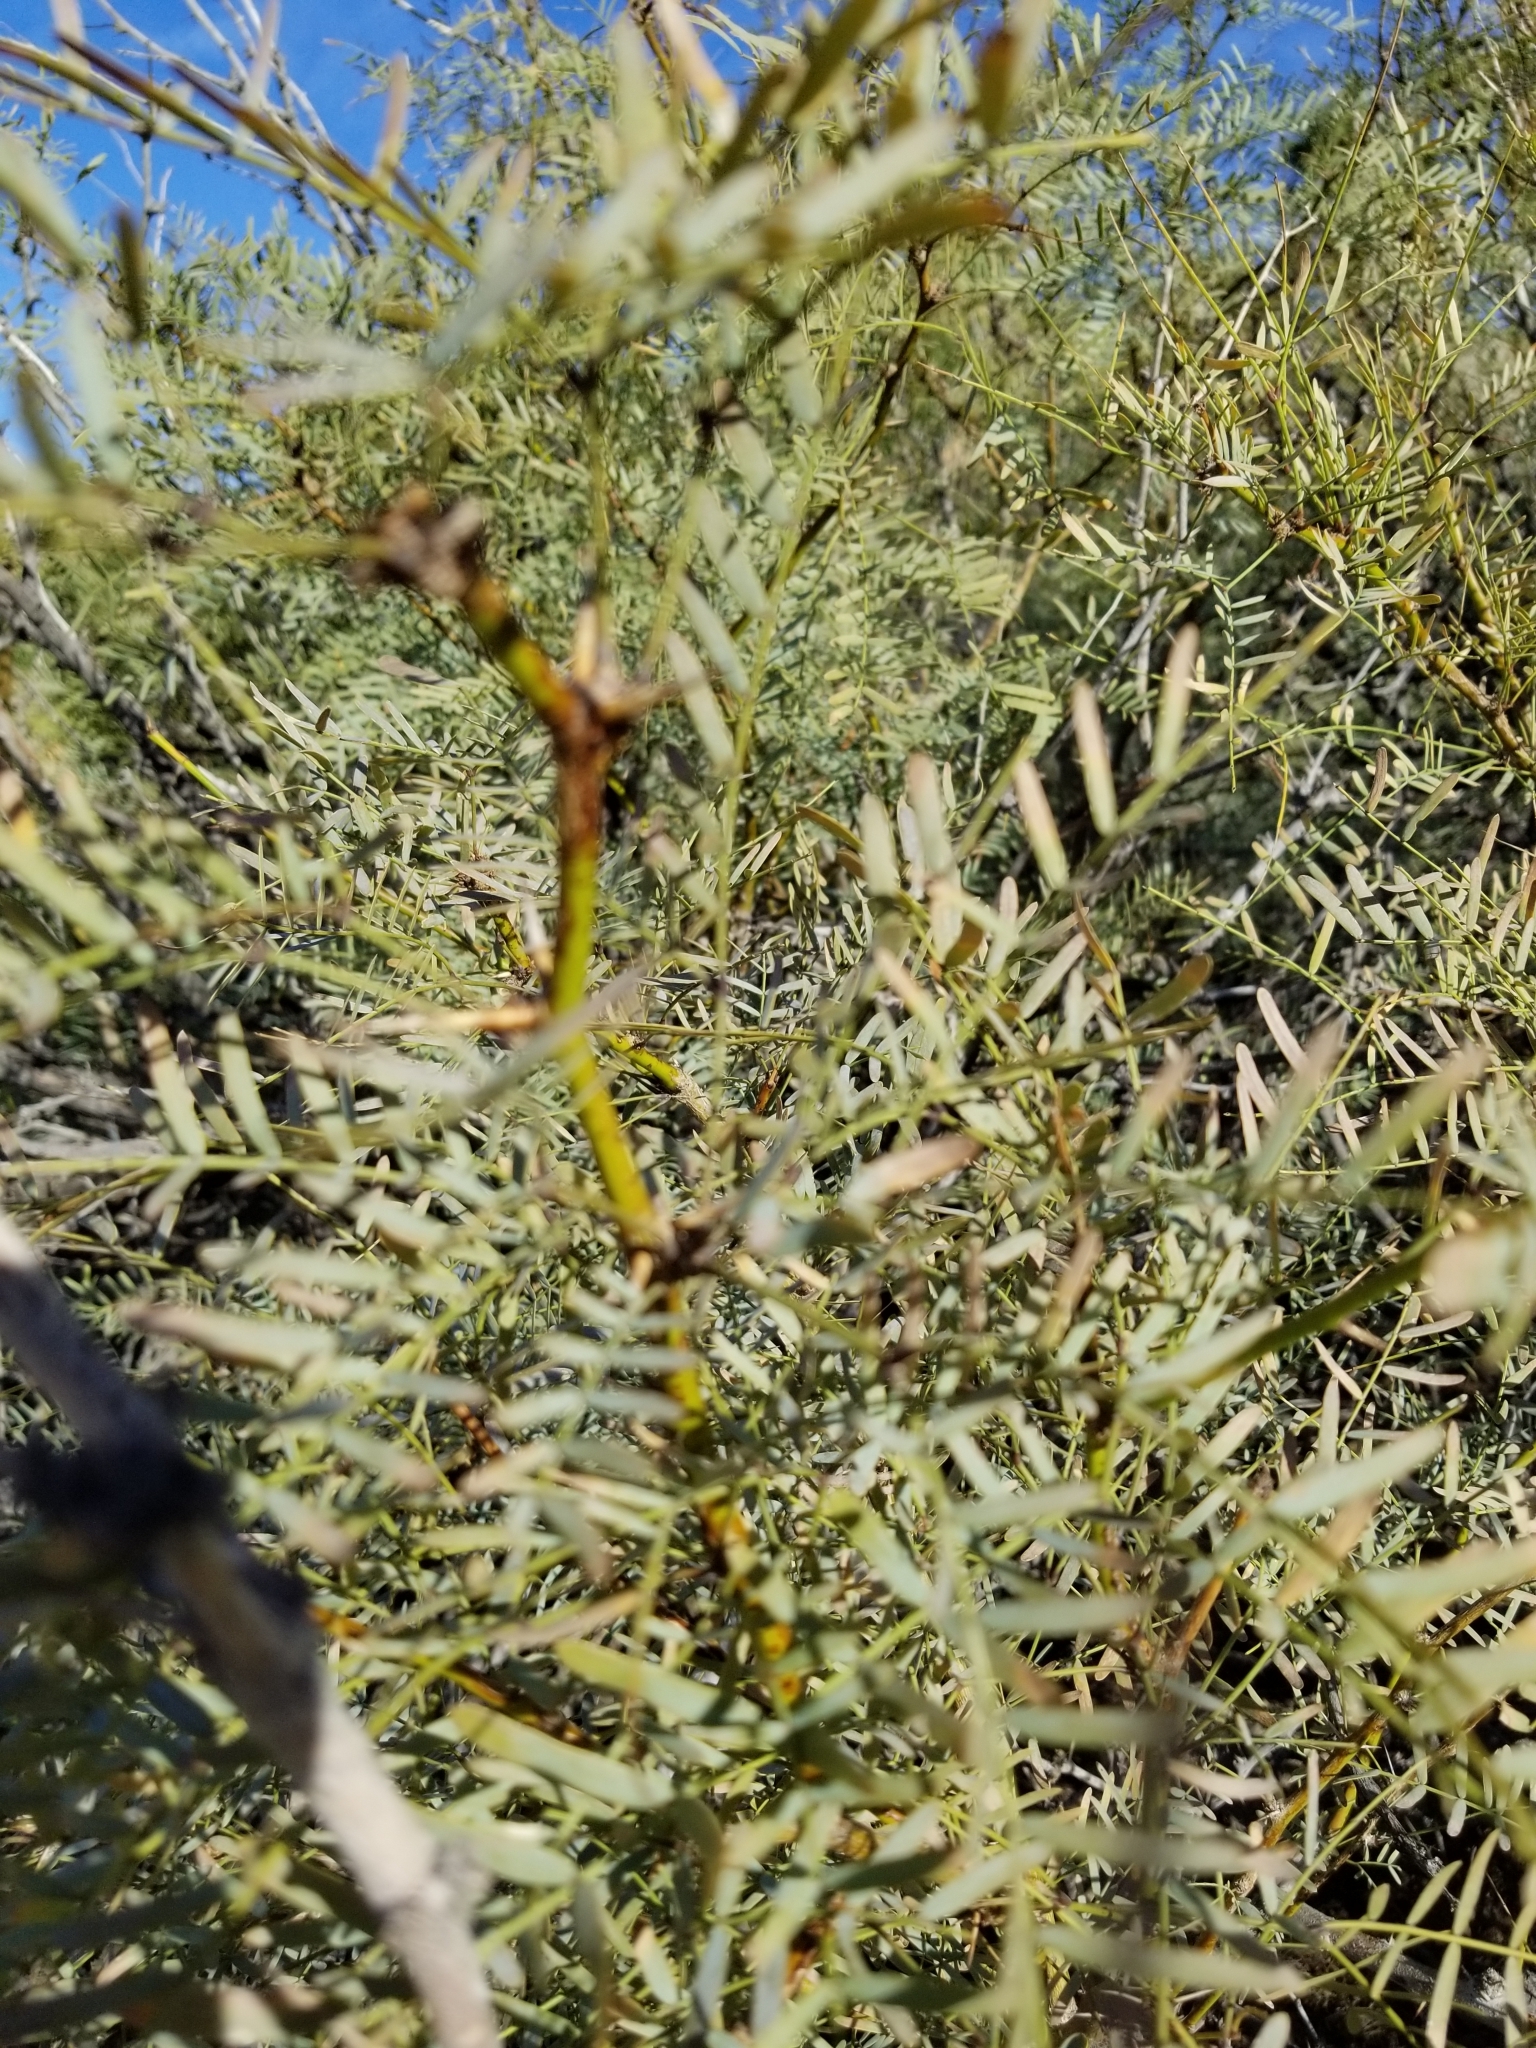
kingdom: Plantae
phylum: Tracheophyta
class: Magnoliopsida
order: Fabales
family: Fabaceae
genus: Prosopis
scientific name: Prosopis pubescens
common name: Screw-bean
